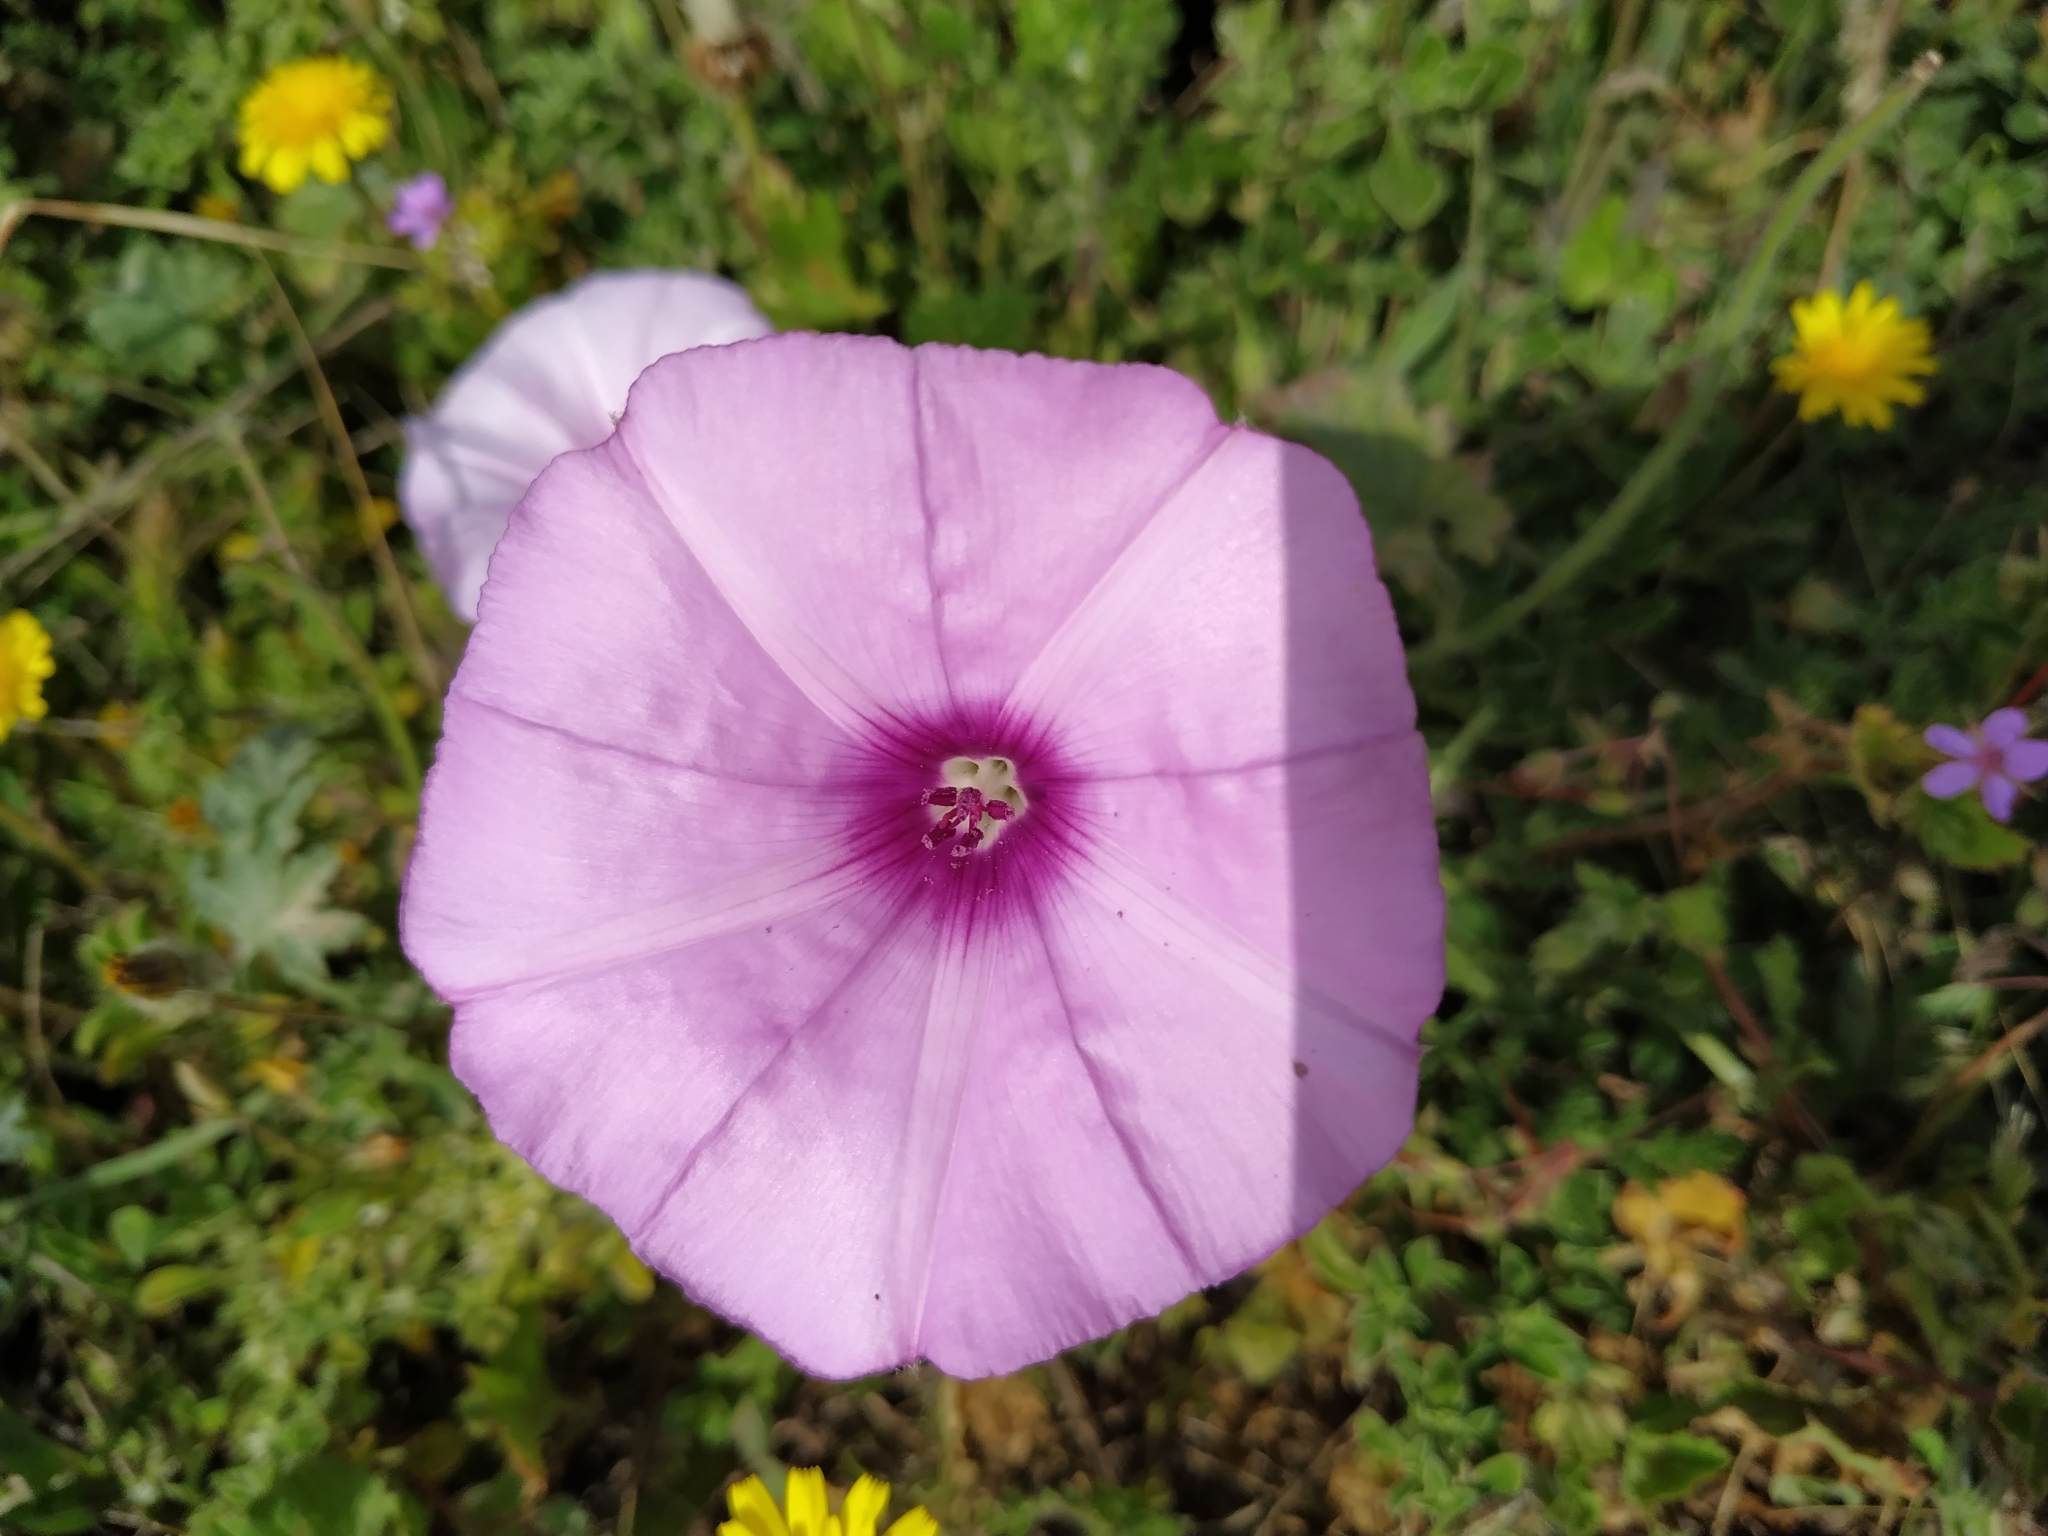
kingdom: Plantae
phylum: Tracheophyta
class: Magnoliopsida
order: Solanales
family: Convolvulaceae
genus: Convolvulus
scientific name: Convolvulus althaeoides
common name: Mallow bindweed
